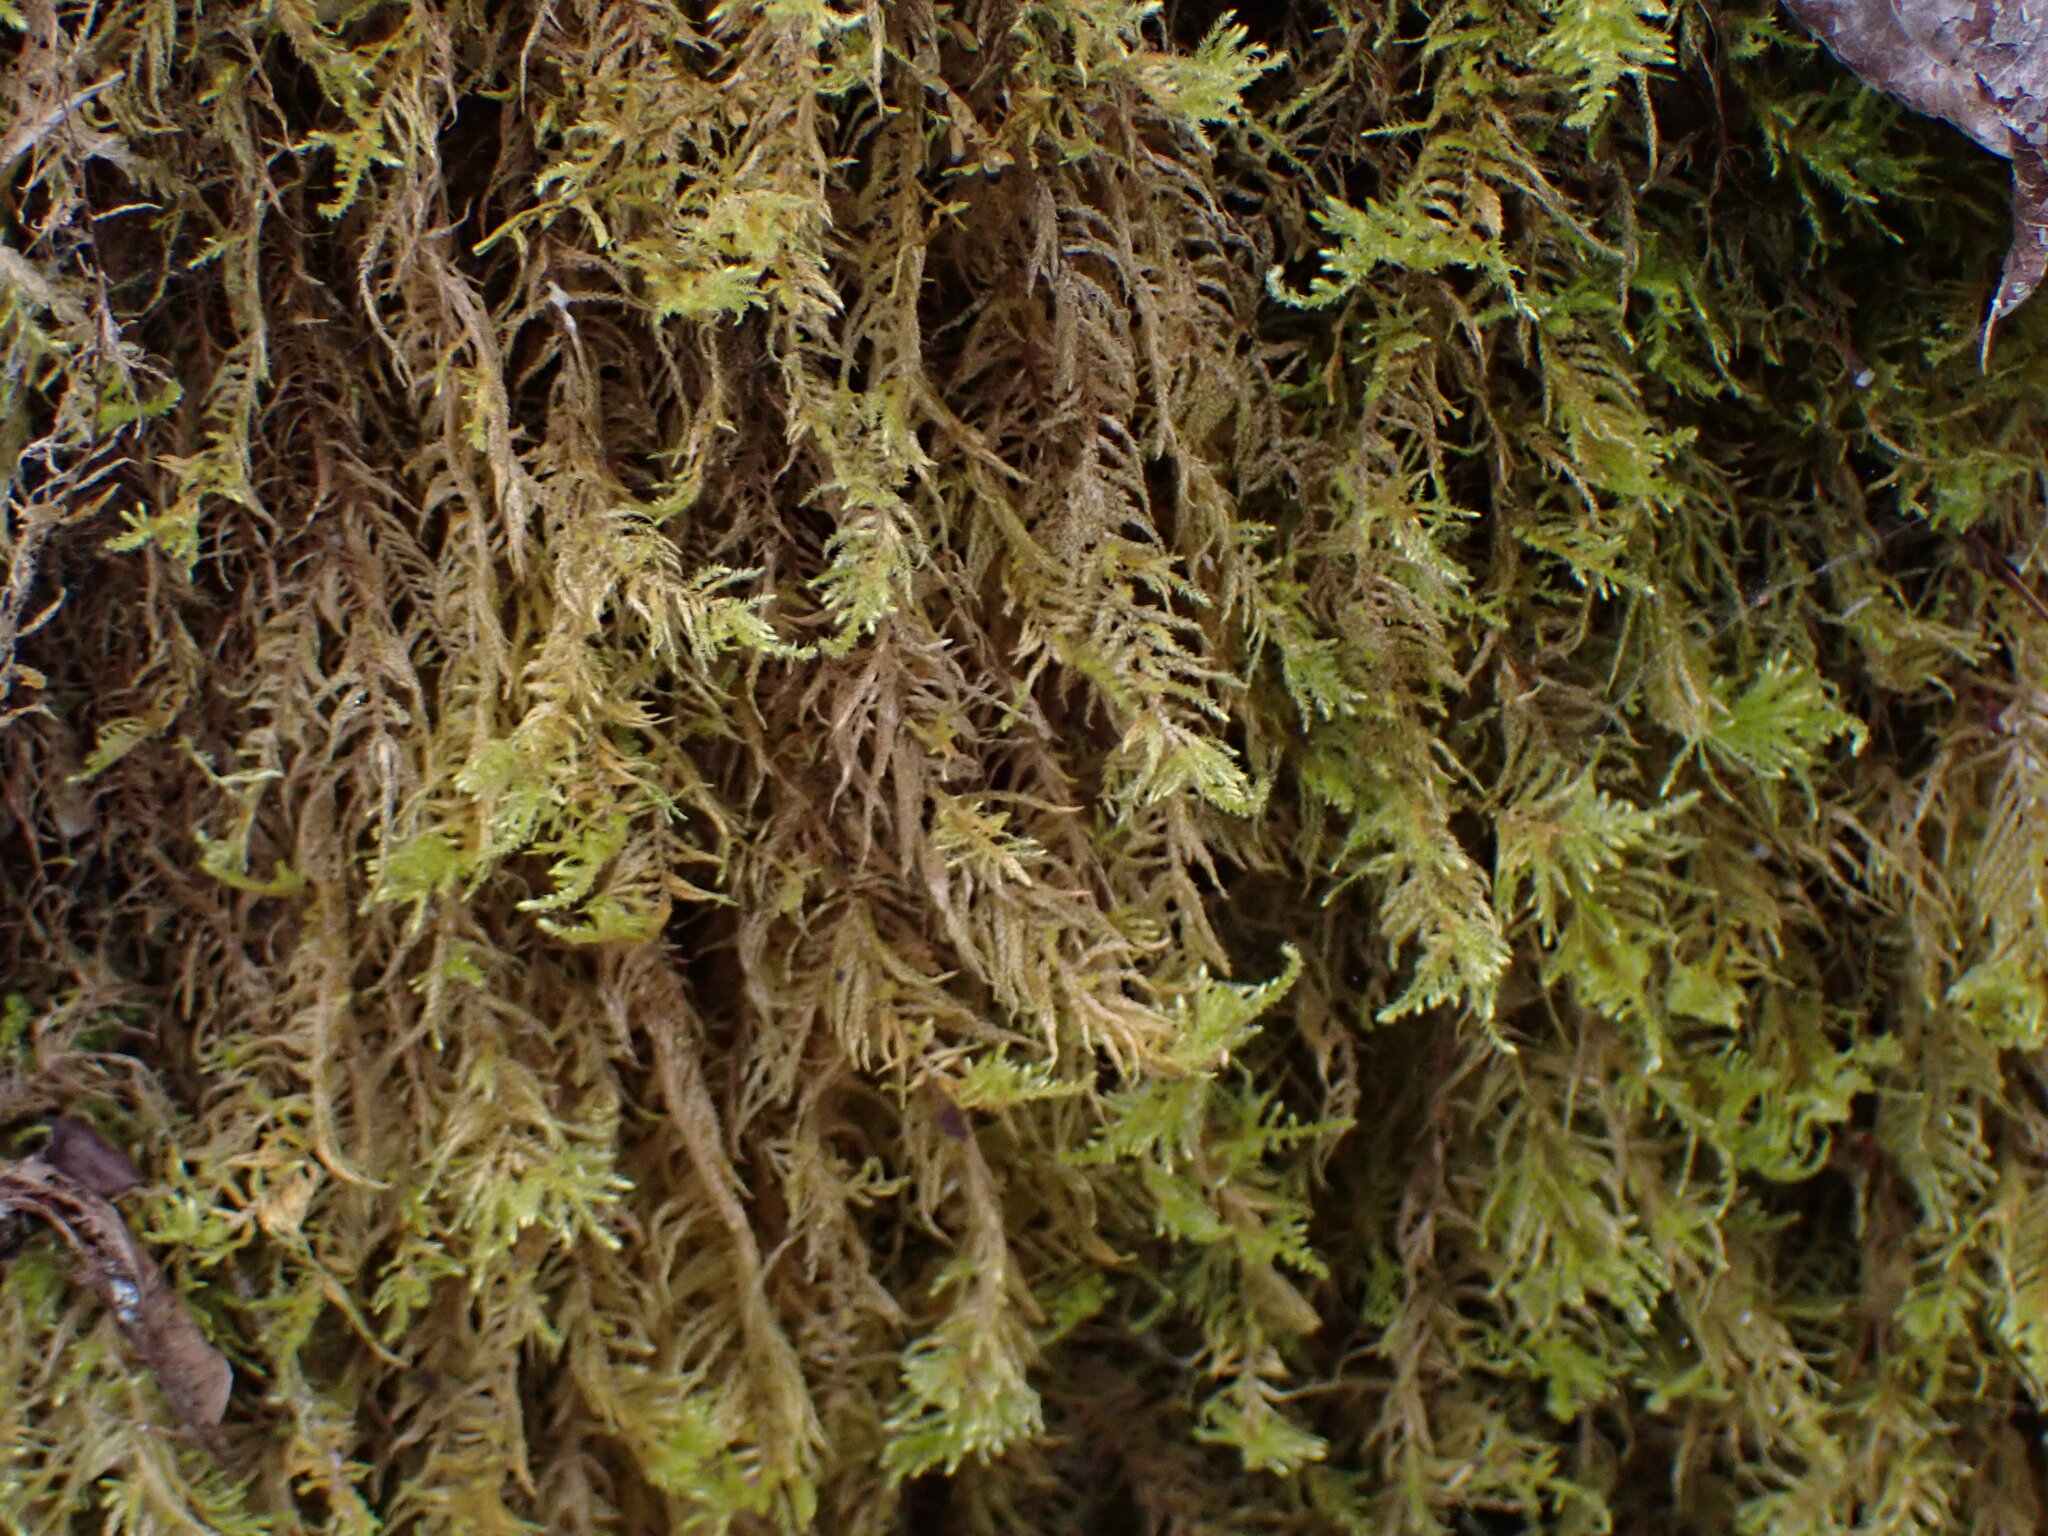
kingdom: Plantae
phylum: Bryophyta
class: Bryopsida
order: Hypnales
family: Brachytheciaceae
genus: Kindbergia
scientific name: Kindbergia oregana
